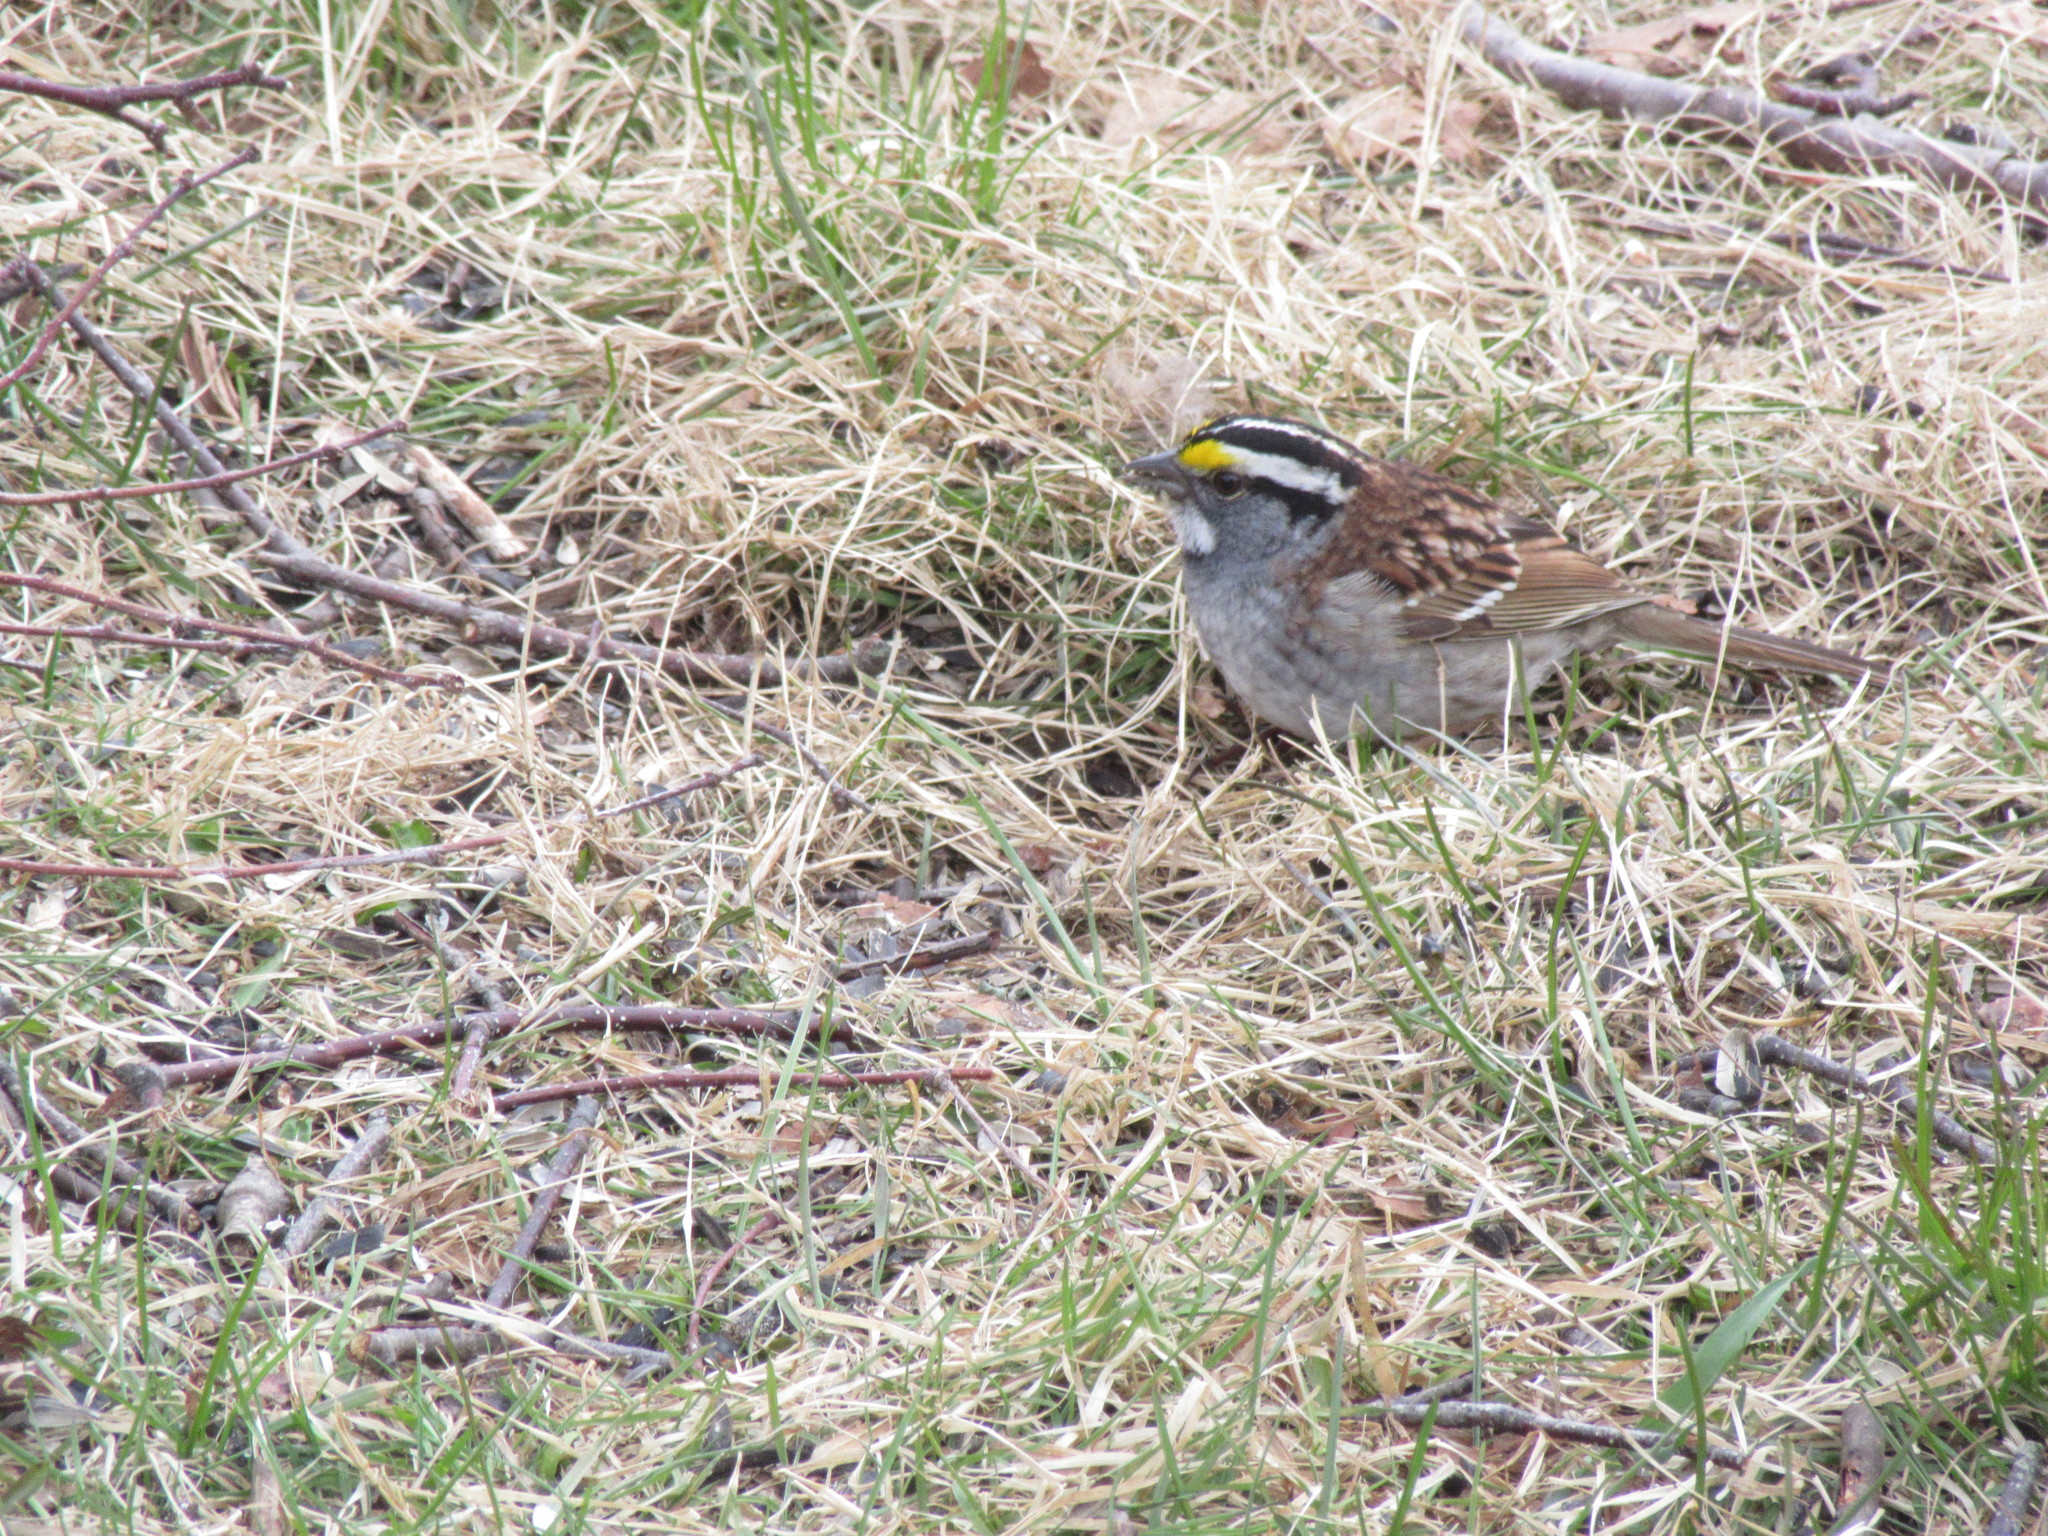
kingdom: Animalia
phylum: Chordata
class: Aves
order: Passeriformes
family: Passerellidae
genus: Zonotrichia
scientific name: Zonotrichia albicollis
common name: White-throated sparrow
